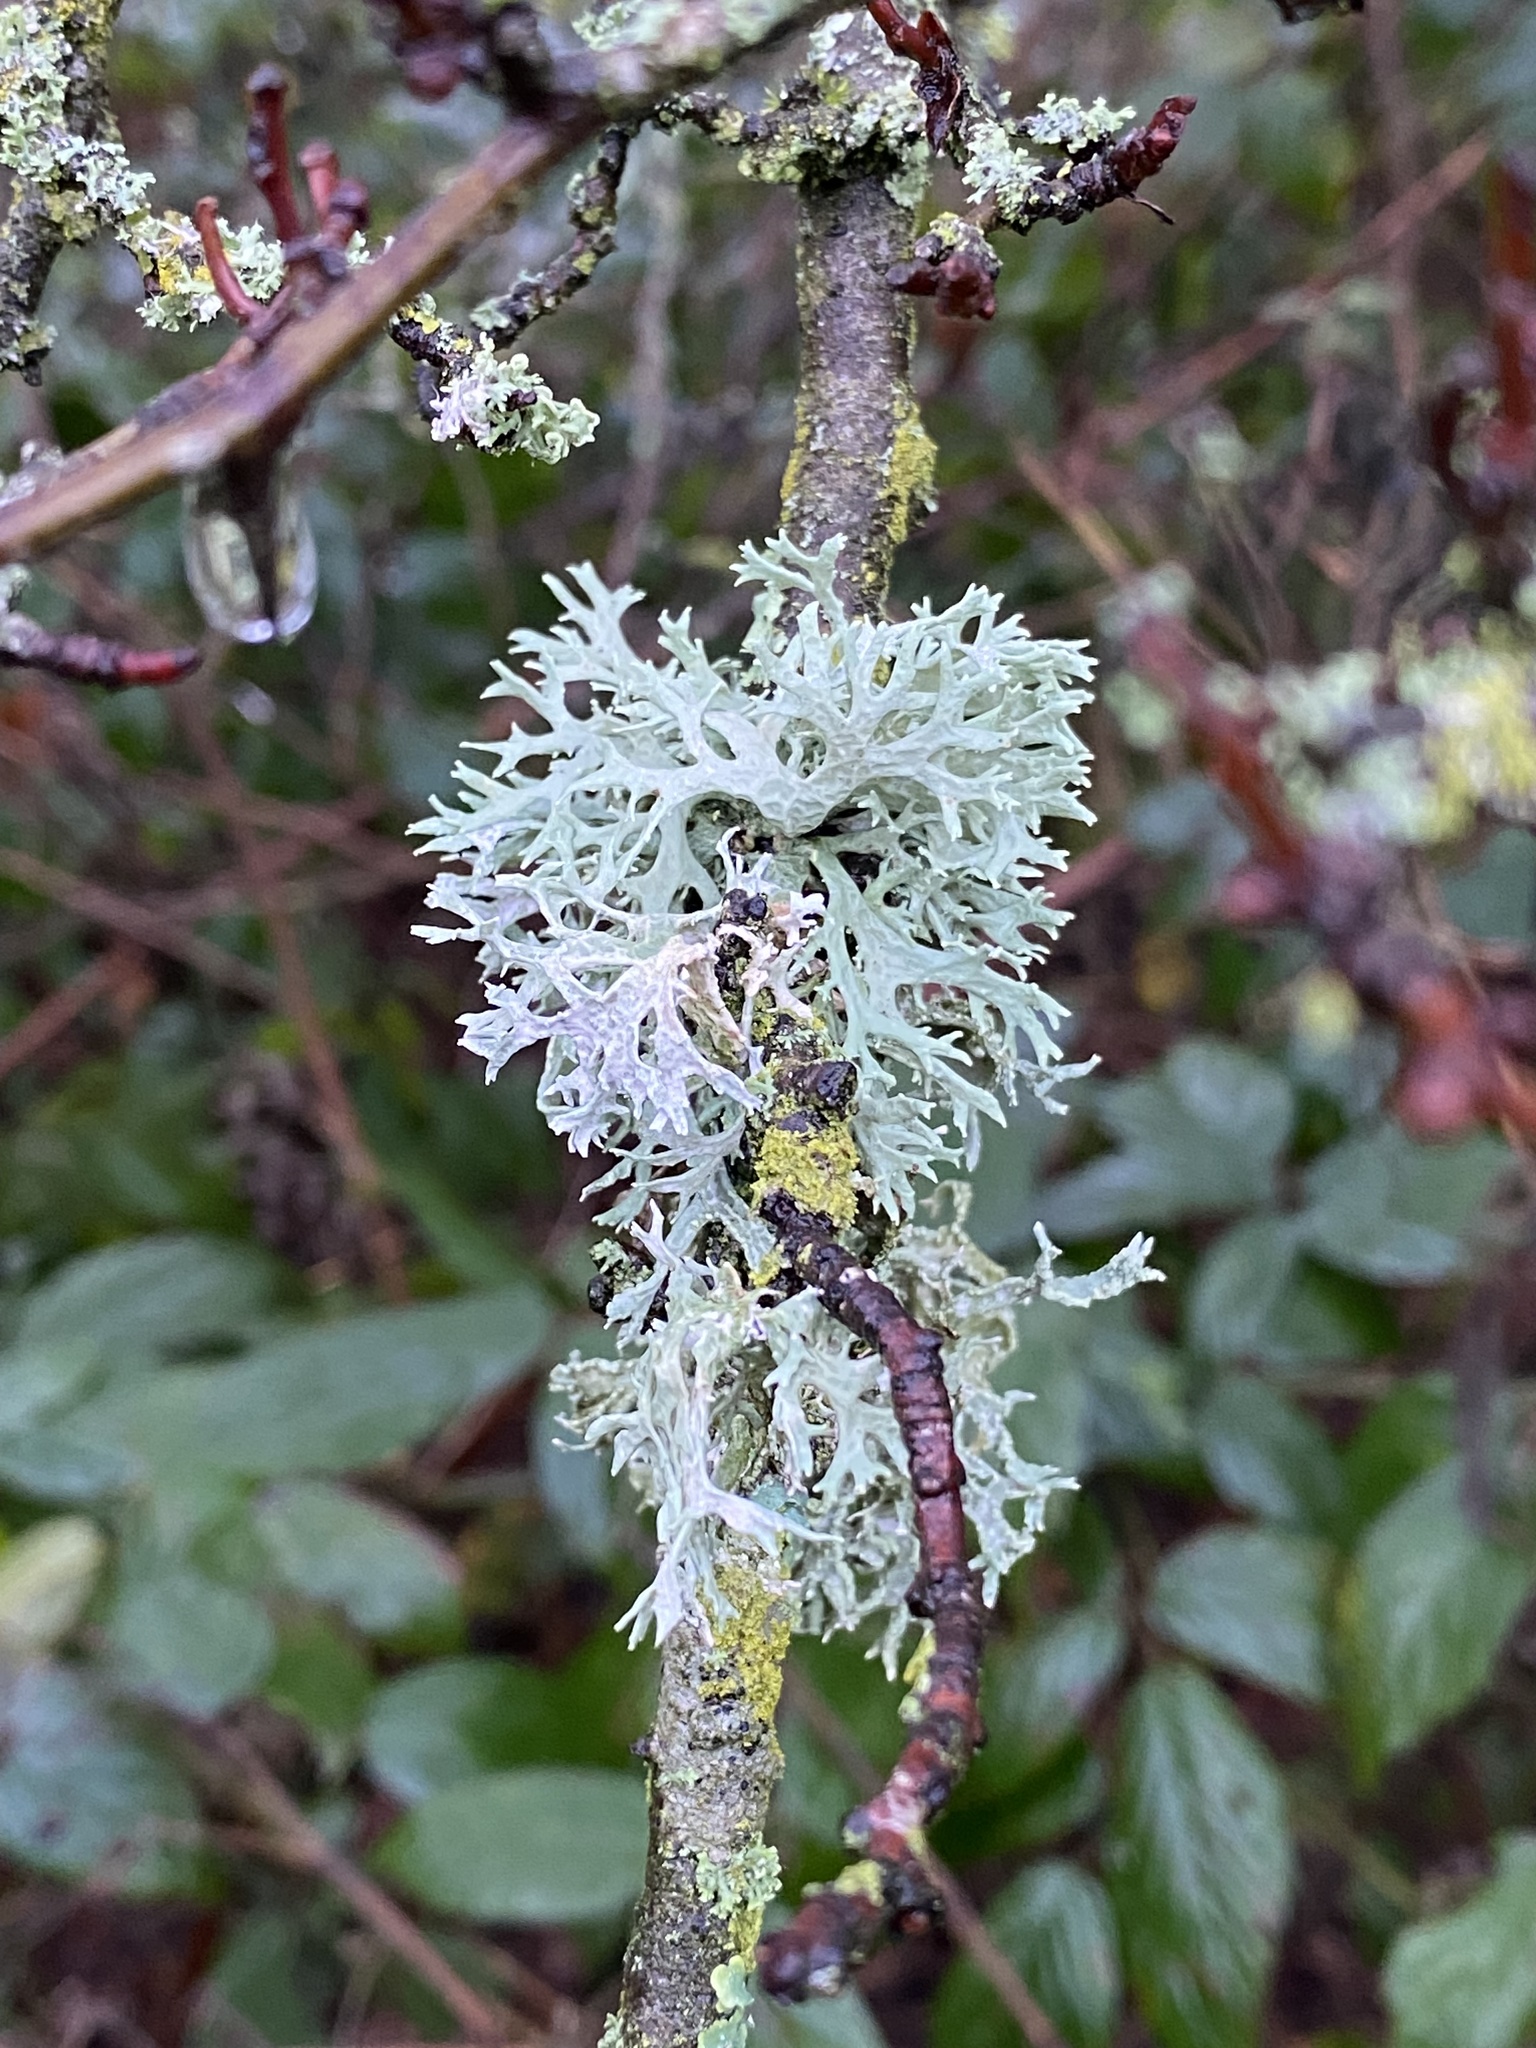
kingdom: Fungi
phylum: Ascomycota
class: Lecanoromycetes
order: Lecanorales
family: Parmeliaceae
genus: Evernia
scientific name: Evernia prunastri
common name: Oak moss
